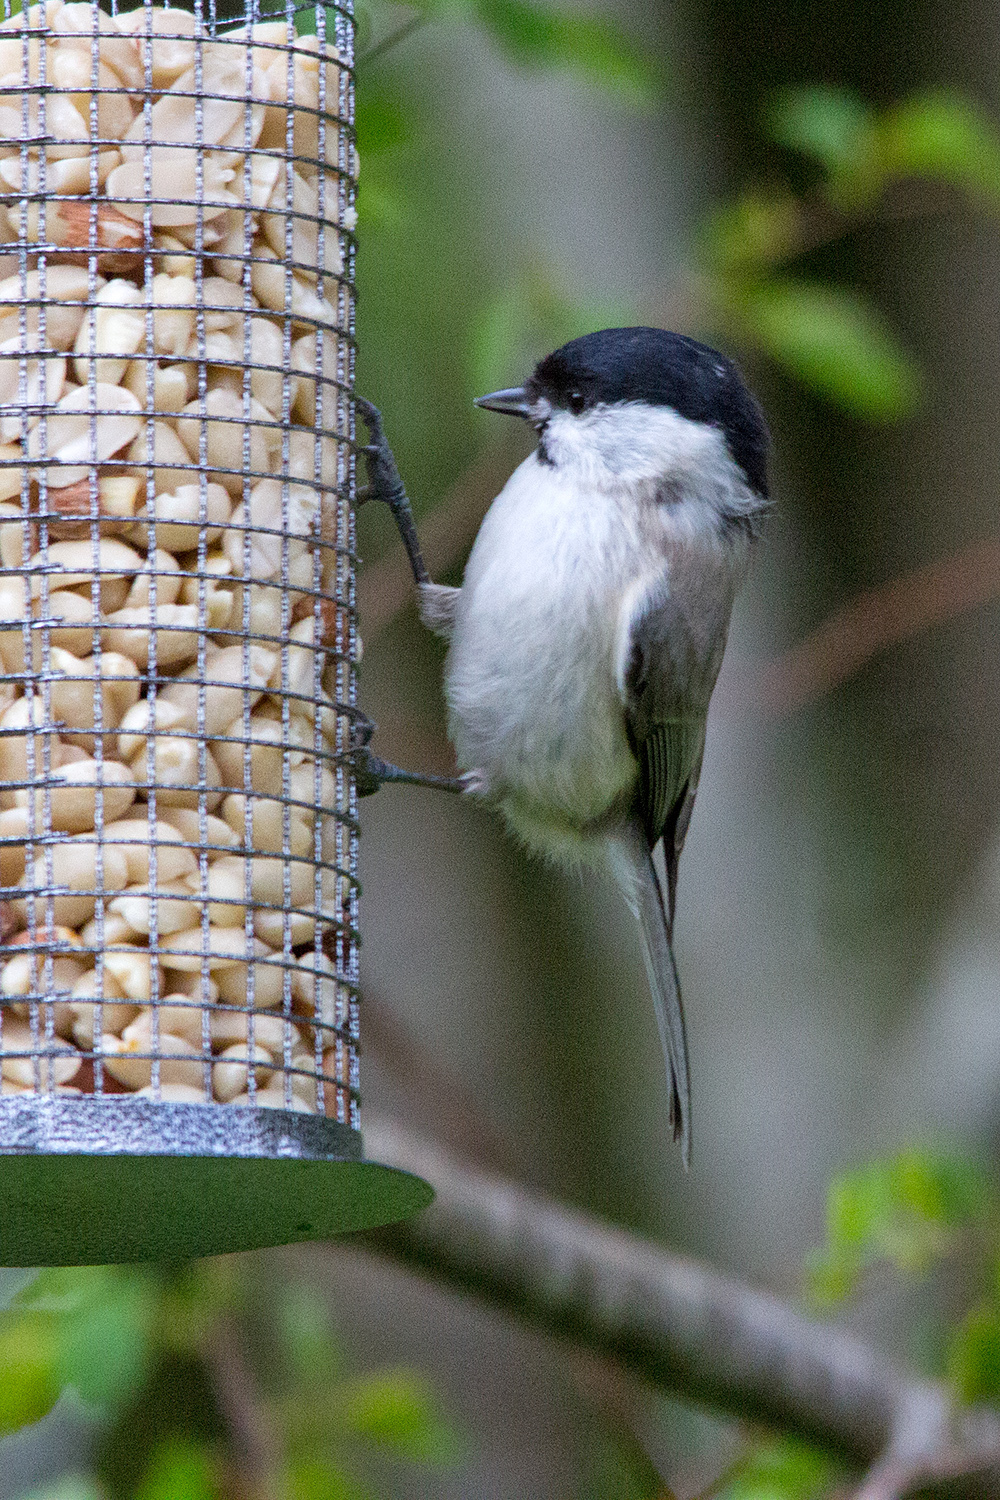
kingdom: Animalia
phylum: Chordata
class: Aves
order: Passeriformes
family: Paridae
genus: Poecile
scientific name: Poecile palustris
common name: Marsh tit
